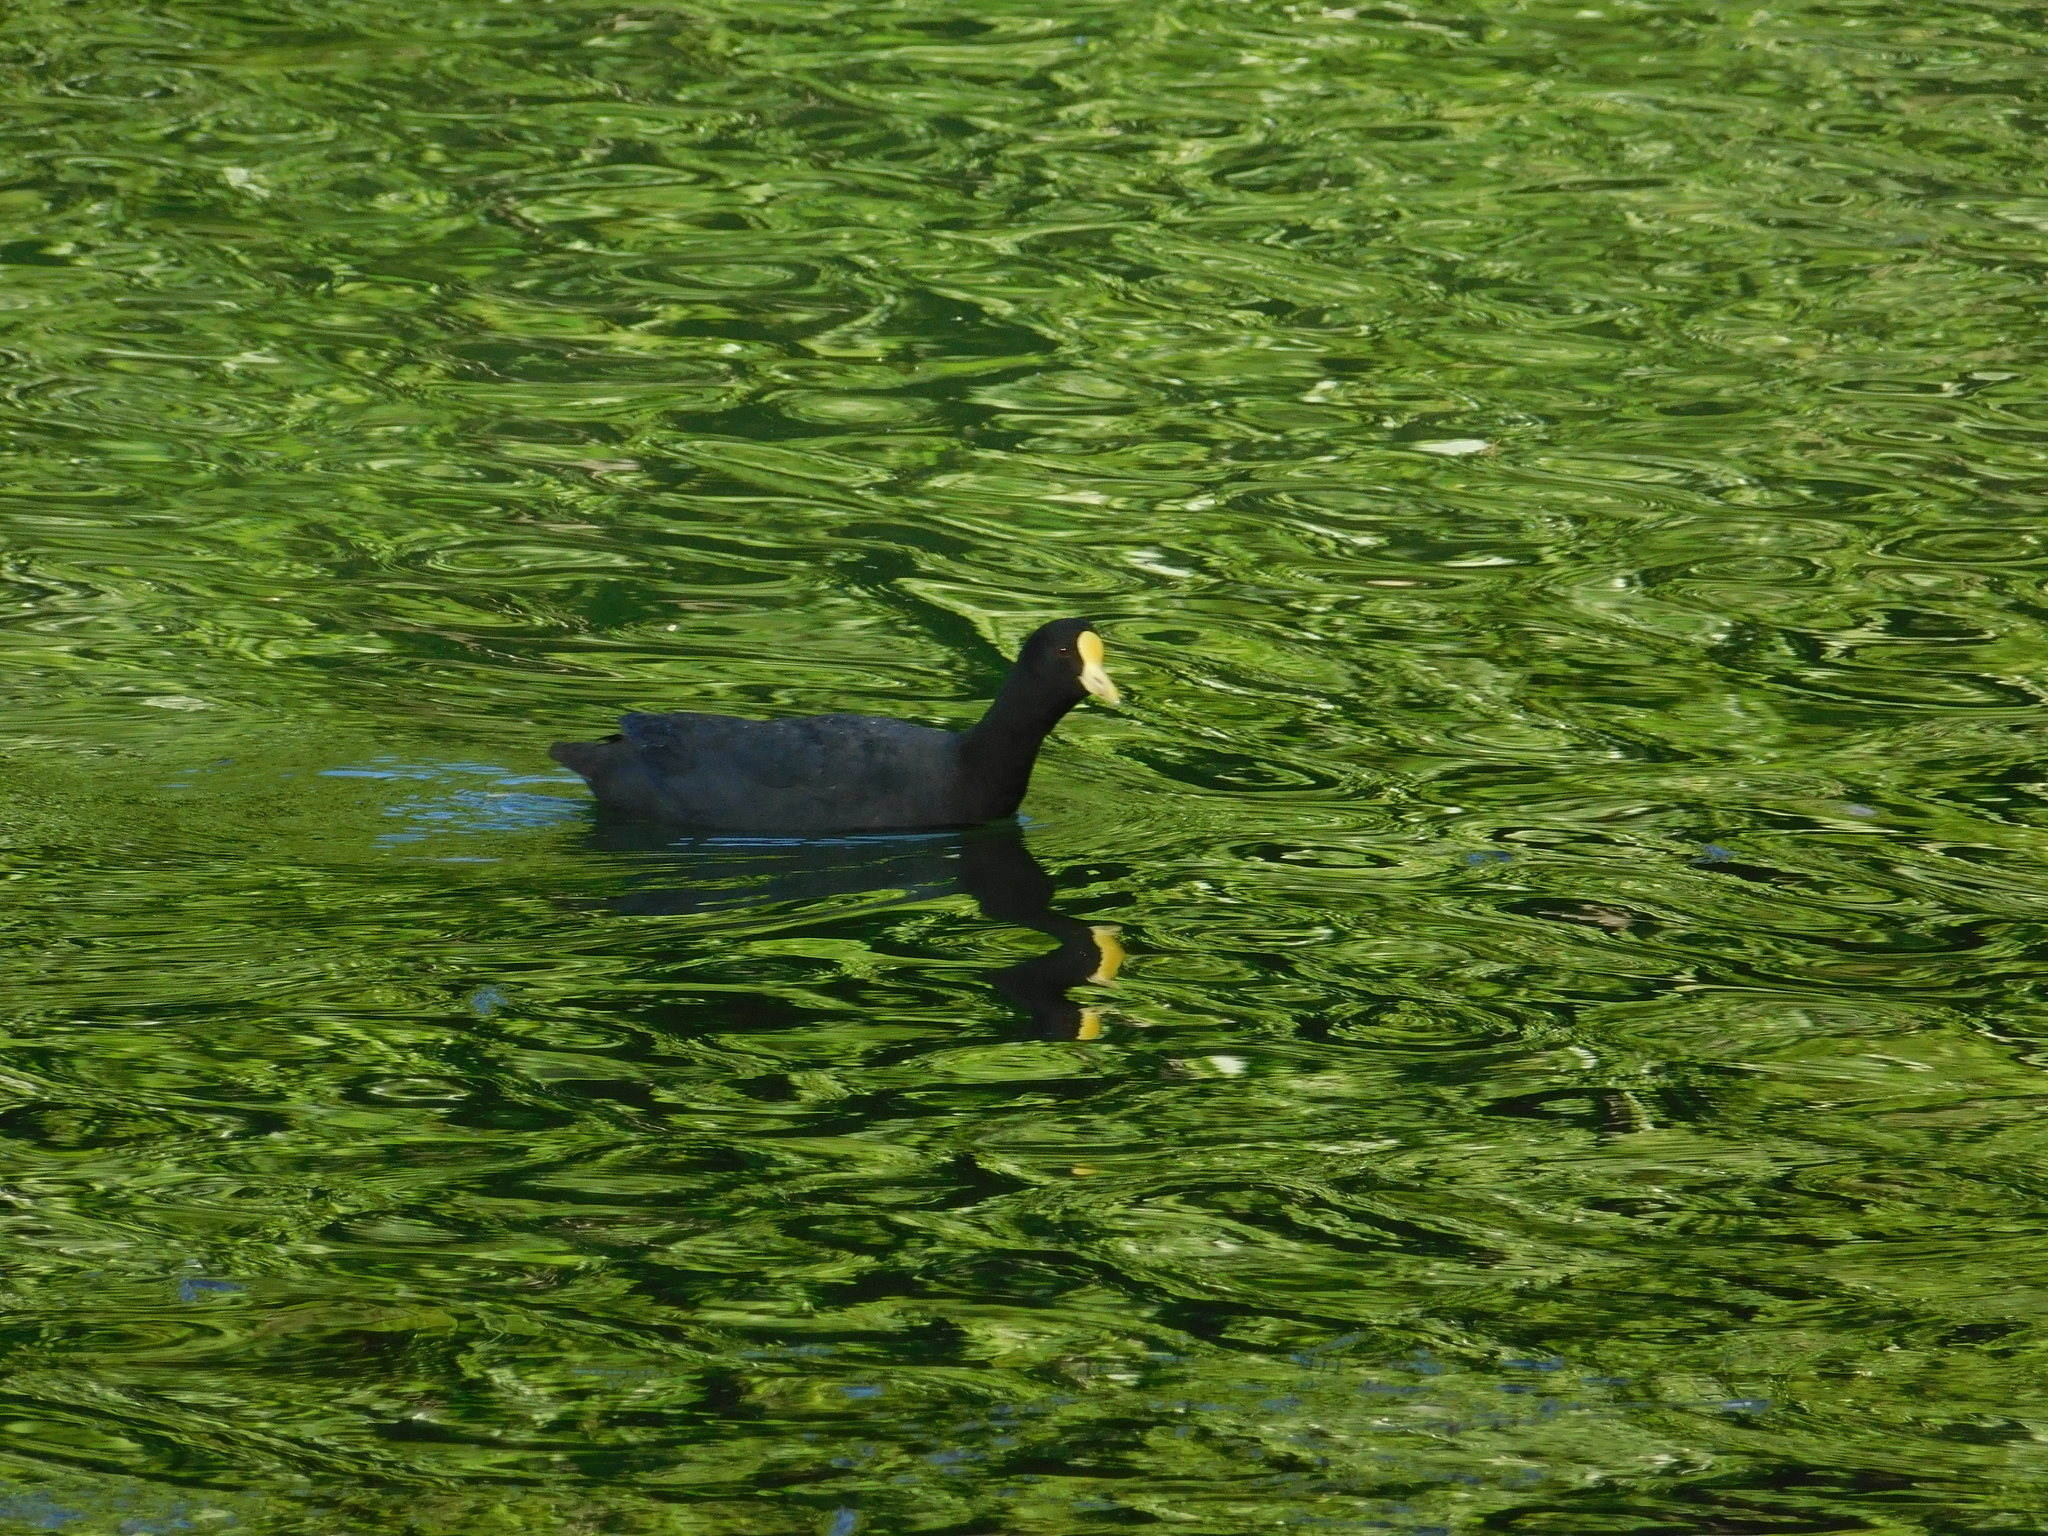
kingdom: Animalia
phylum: Chordata
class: Aves
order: Gruiformes
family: Rallidae
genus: Fulica
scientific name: Fulica leucoptera
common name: White-winged coot
